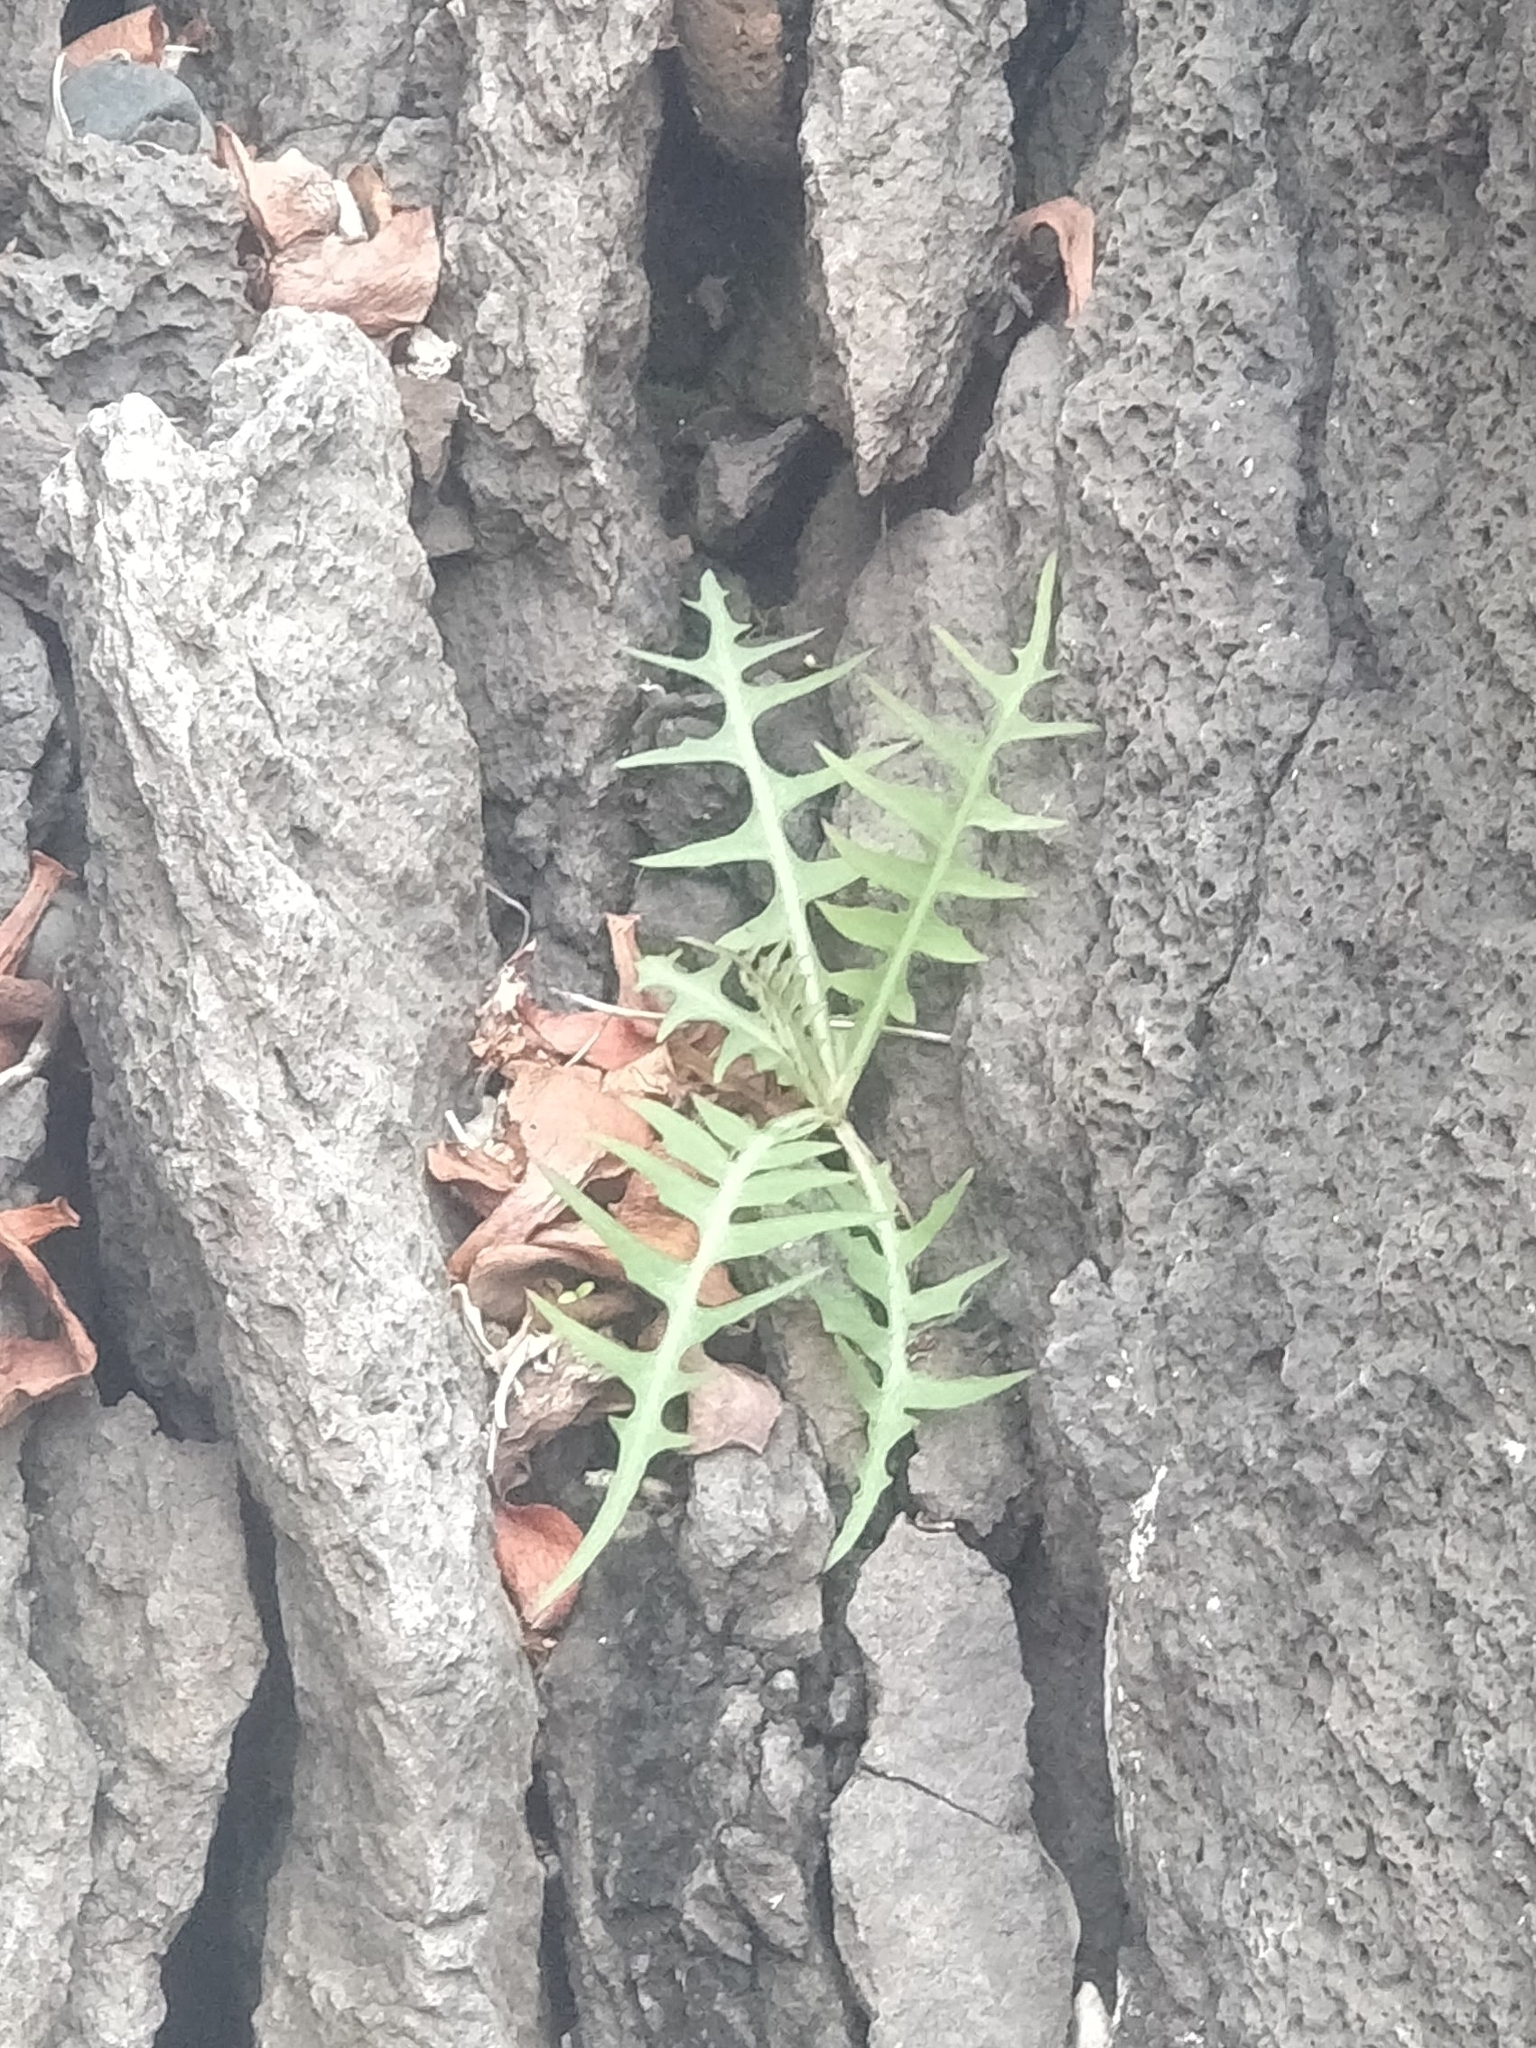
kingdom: Plantae
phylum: Tracheophyta
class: Magnoliopsida
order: Asterales
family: Asteraceae
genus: Sonchus
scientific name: Sonchus ustulatus
